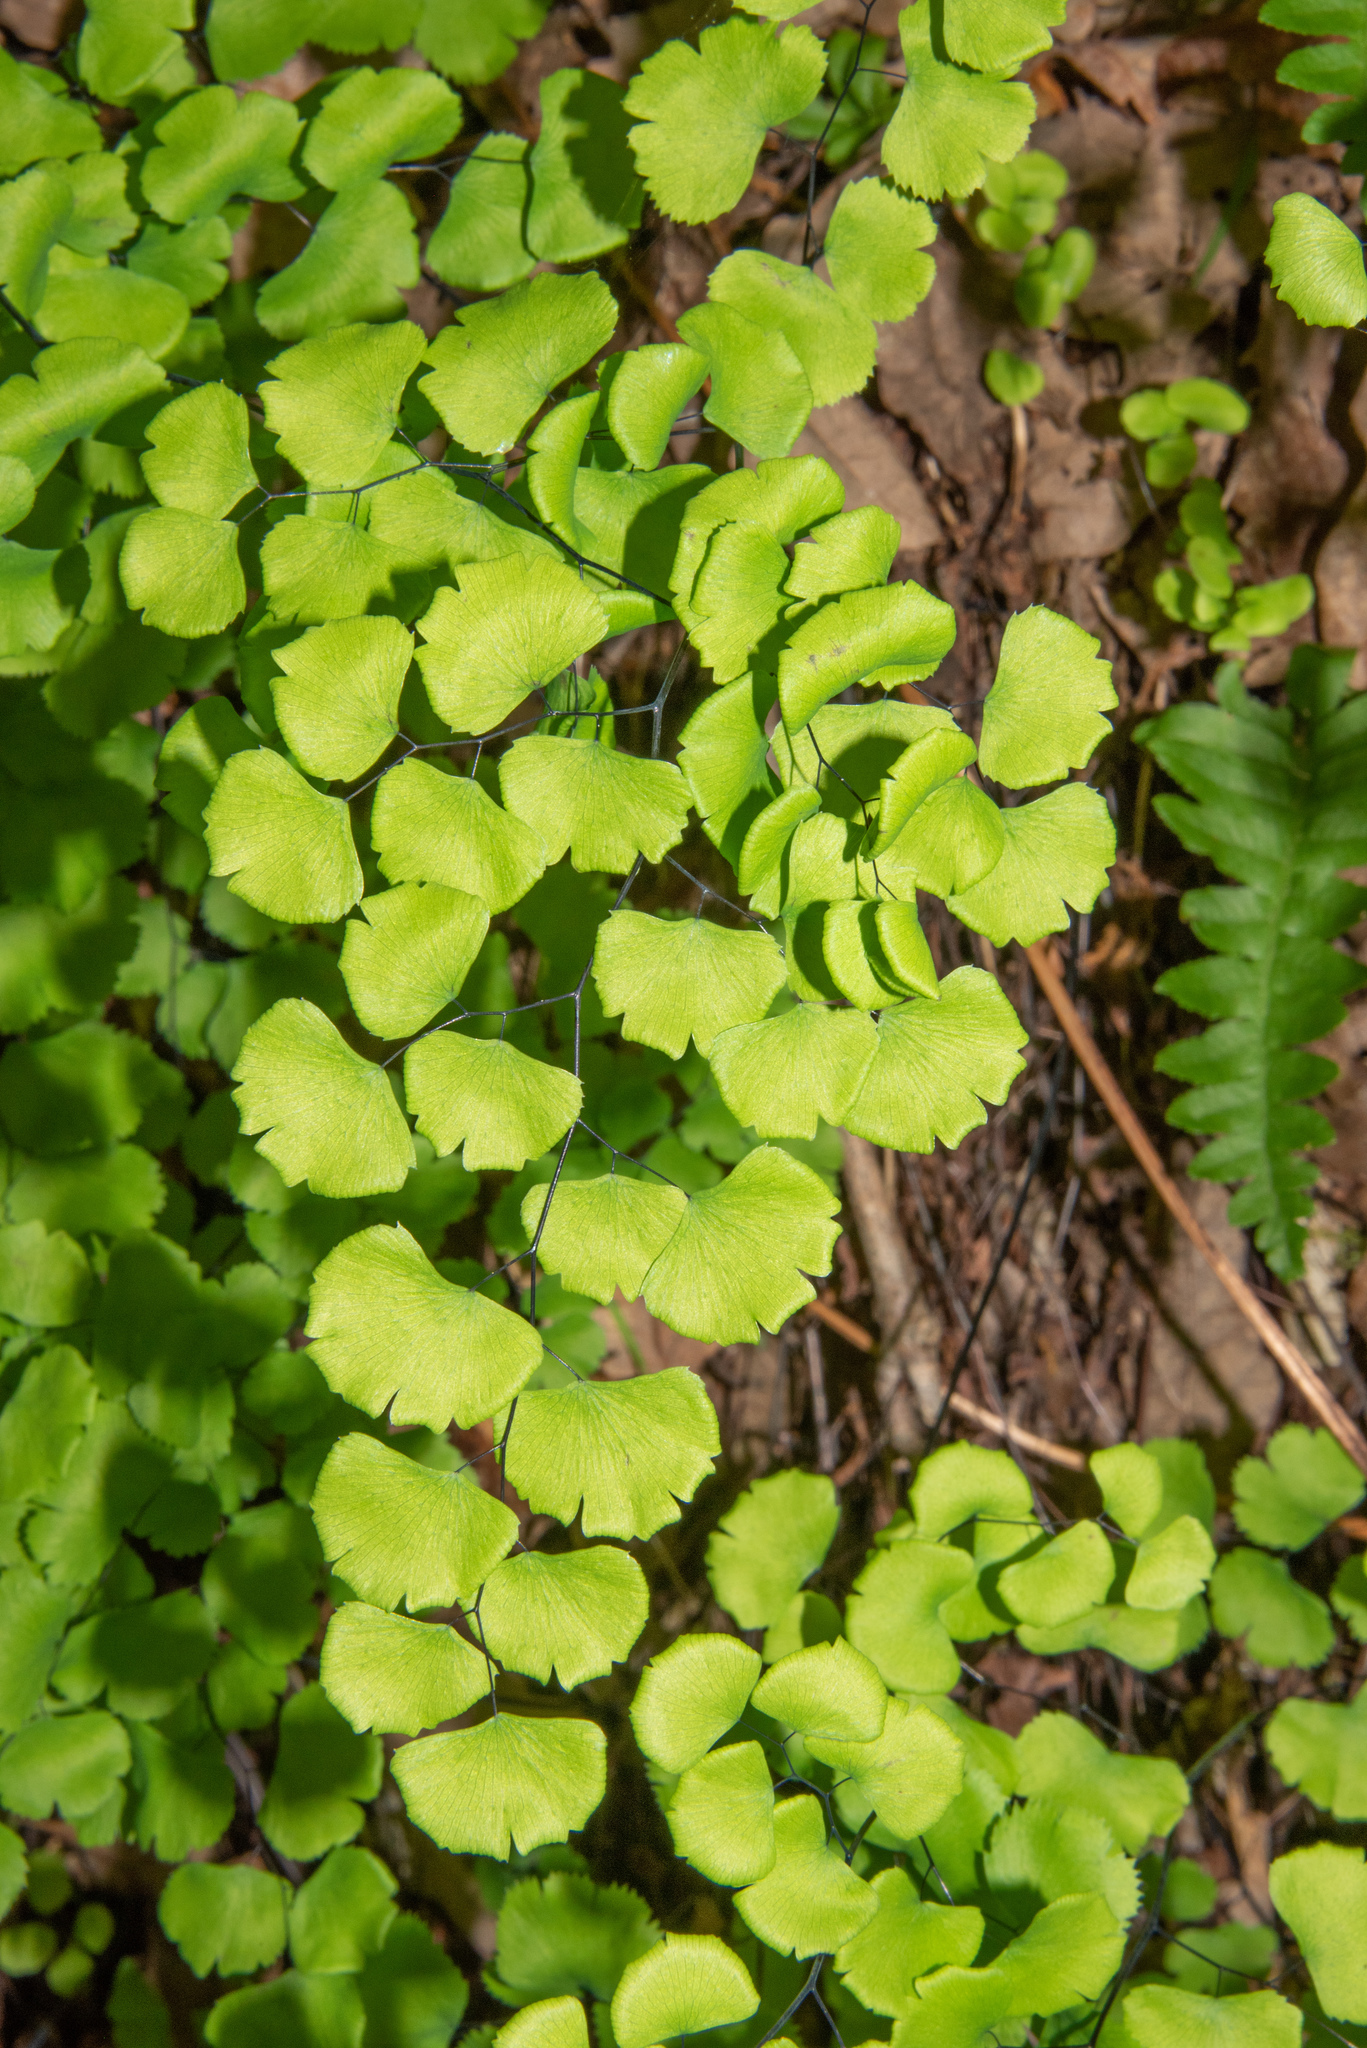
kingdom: Plantae
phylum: Tracheophyta
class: Polypodiopsida
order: Polypodiales
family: Pteridaceae
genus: Adiantum
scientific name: Adiantum jordanii
